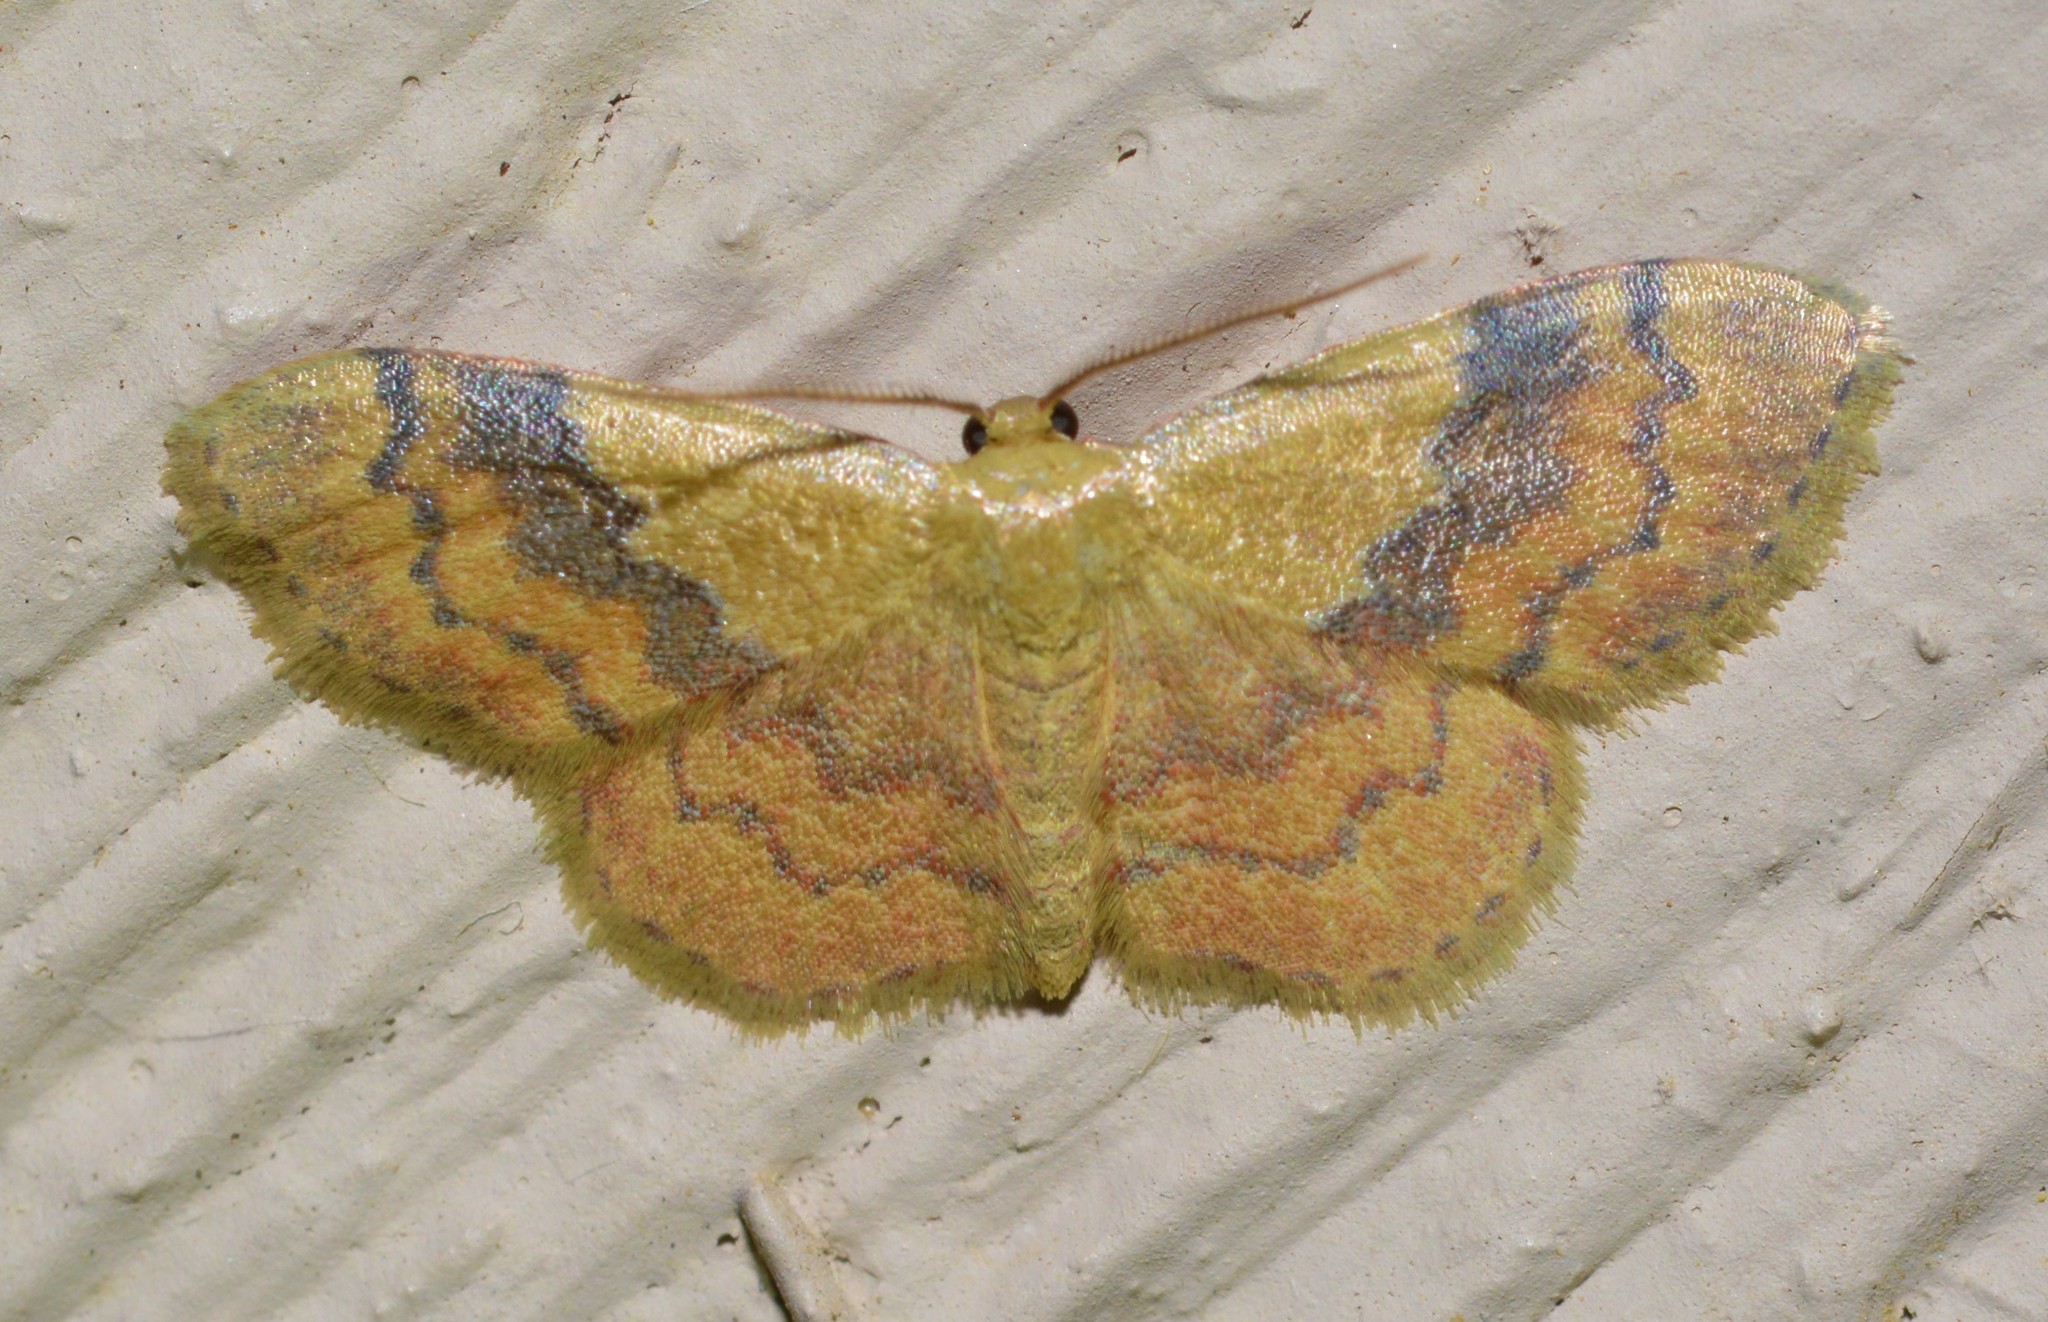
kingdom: Animalia
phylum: Arthropoda
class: Insecta
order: Lepidoptera
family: Geometridae
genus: Leptostales
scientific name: Leptostales ferruminaria
